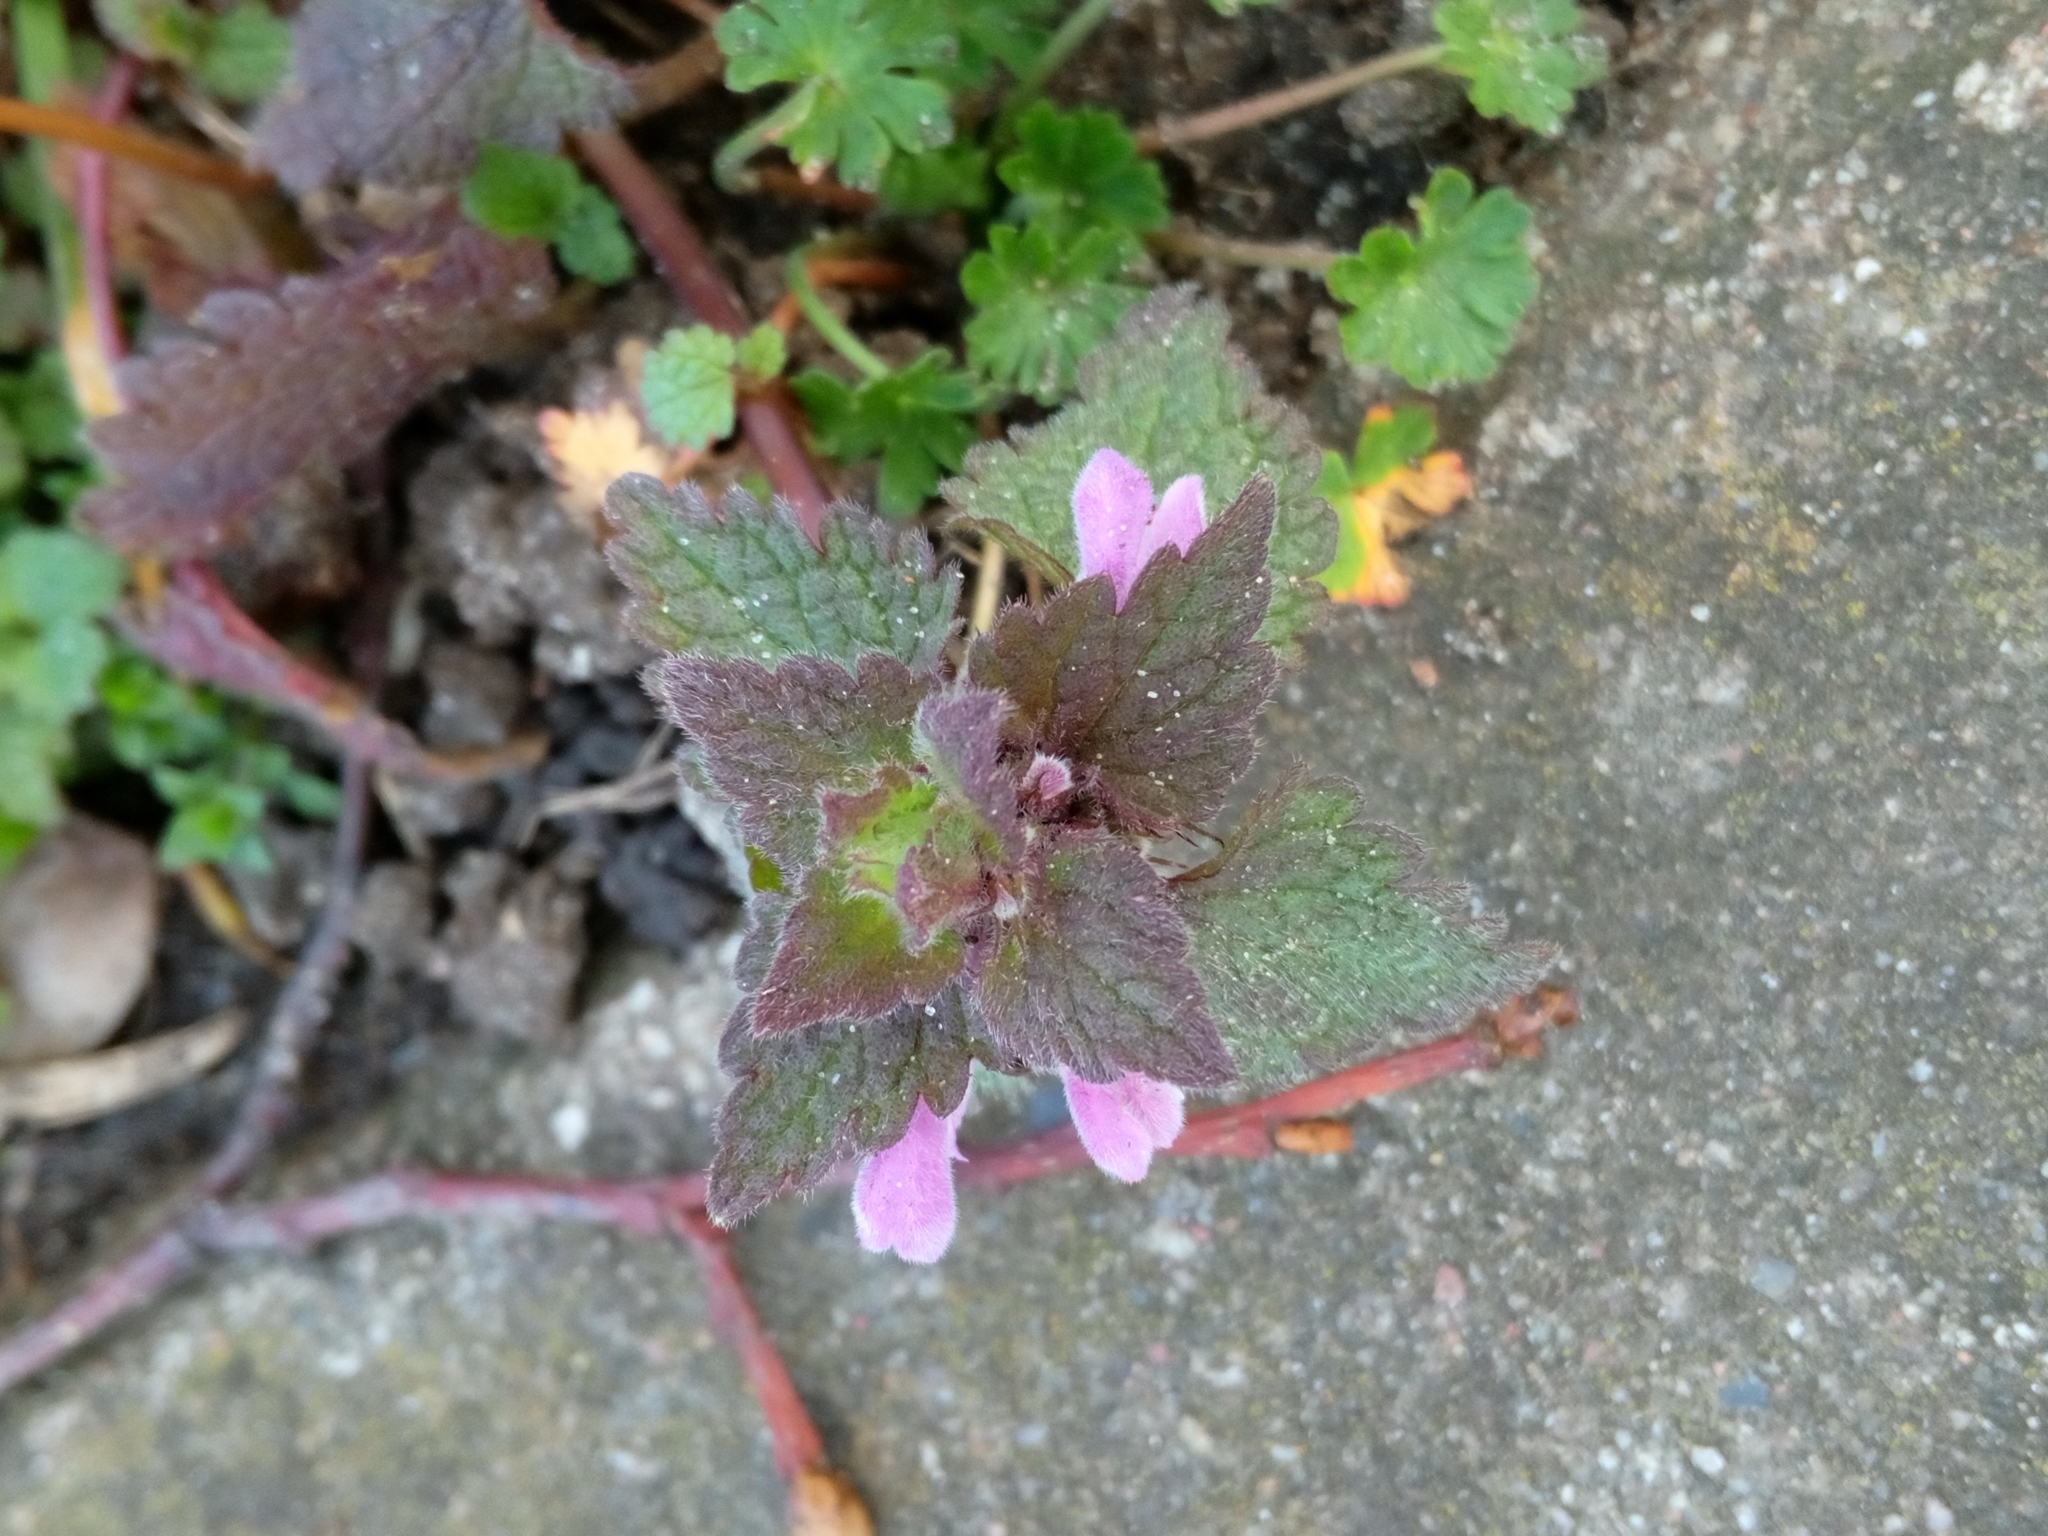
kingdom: Plantae
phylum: Tracheophyta
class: Magnoliopsida
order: Lamiales
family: Lamiaceae
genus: Lamium
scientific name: Lamium purpureum
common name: Red dead-nettle
